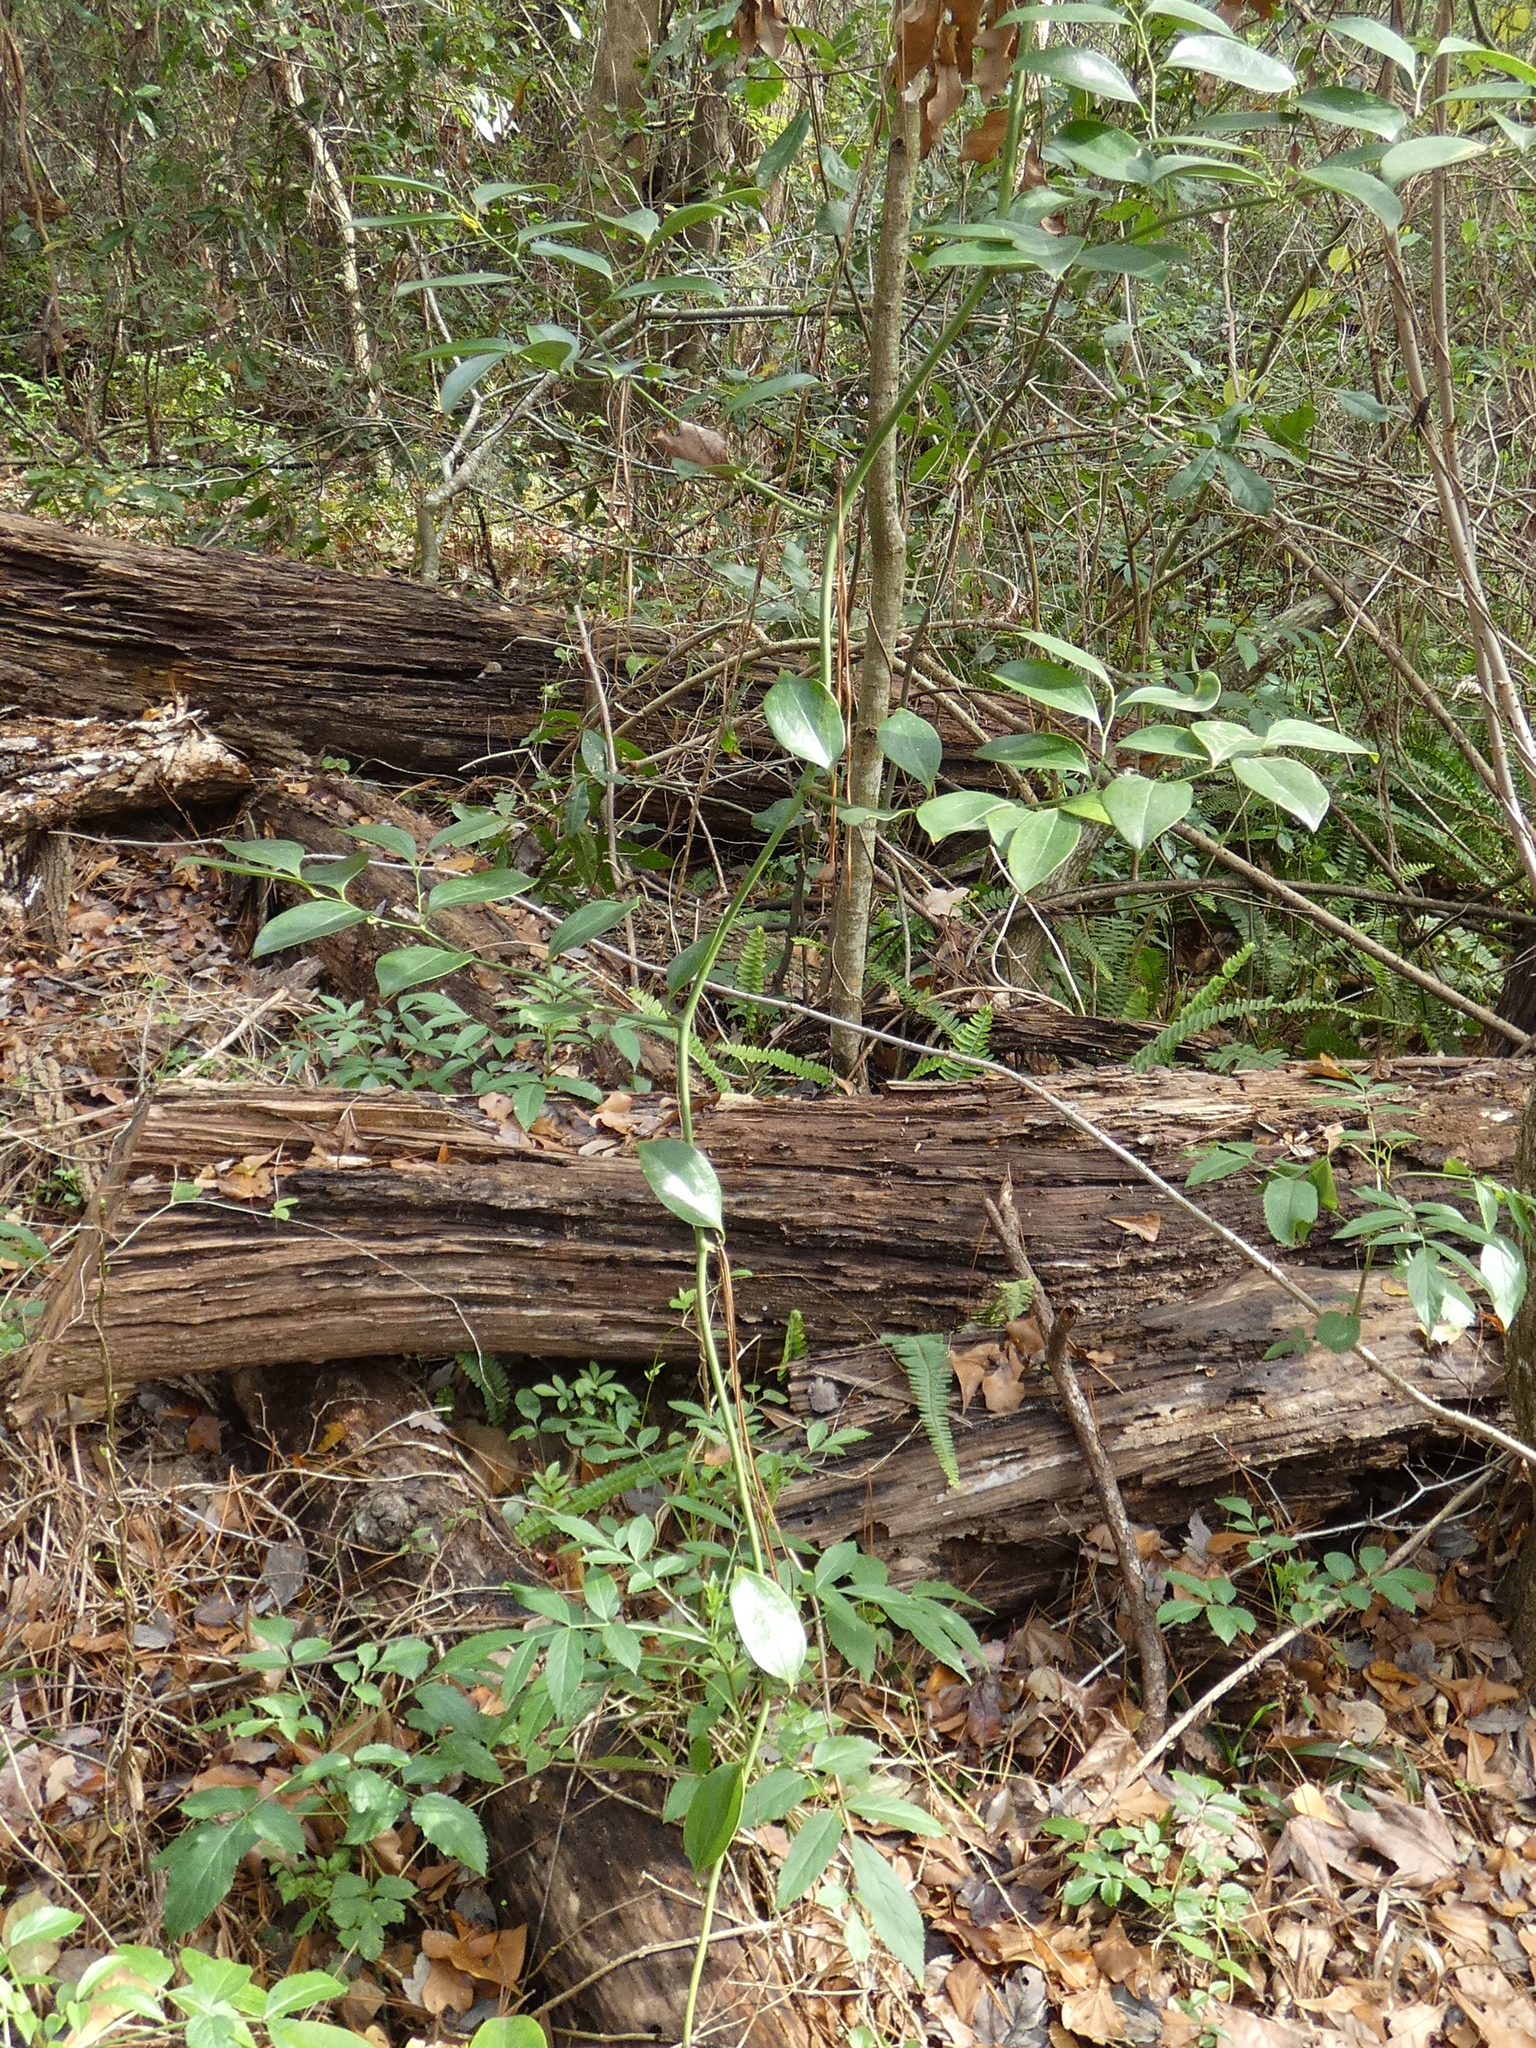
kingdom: Plantae
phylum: Tracheophyta
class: Liliopsida
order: Liliales
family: Smilacaceae
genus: Smilax
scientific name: Smilax maritima
